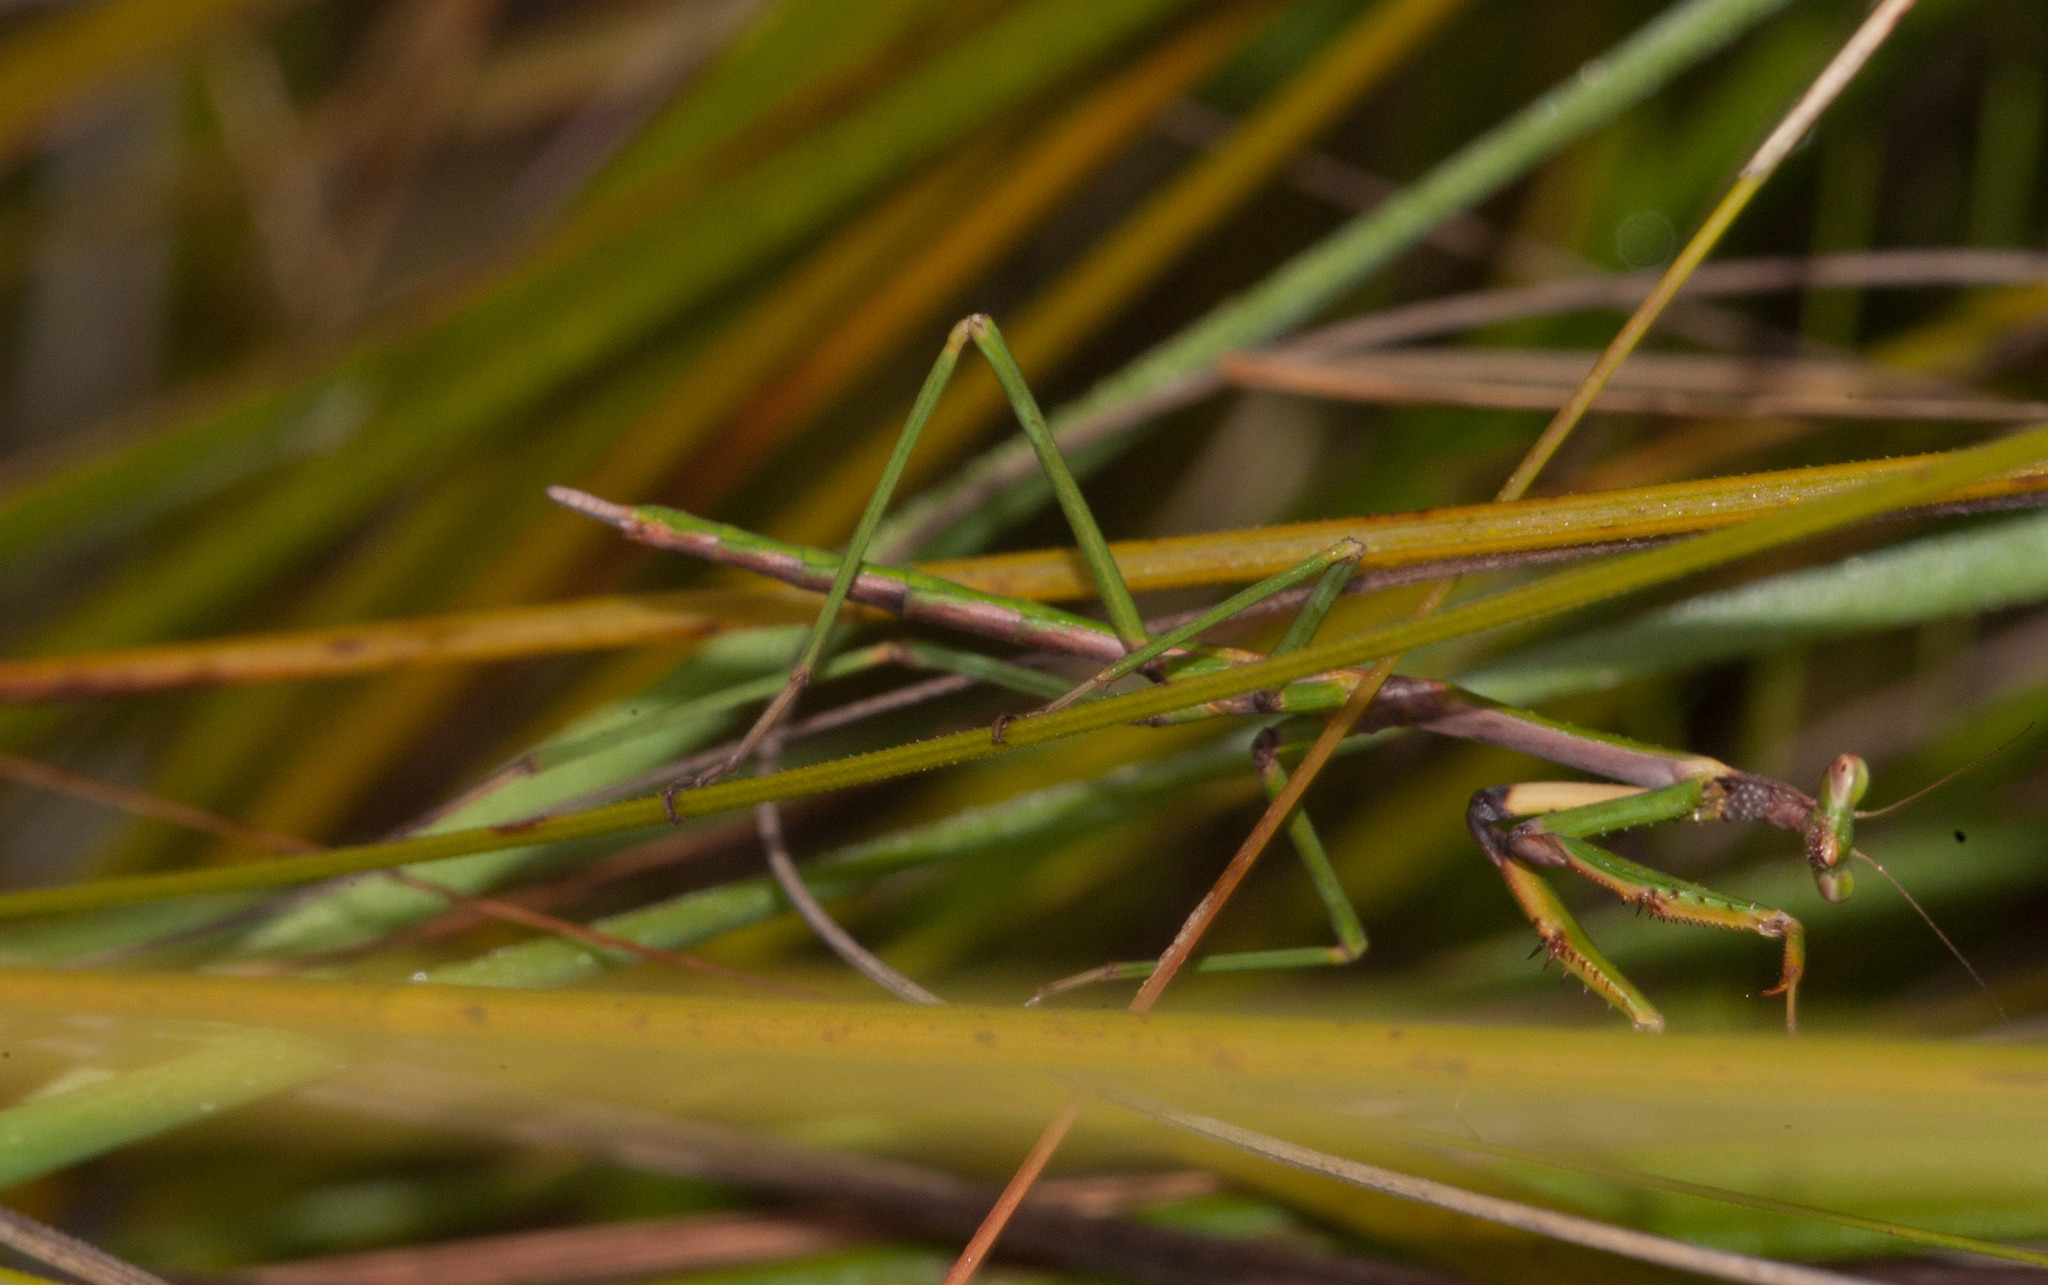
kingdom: Animalia
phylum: Arthropoda
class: Insecta
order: Mantodea
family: Mantidae
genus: Archimantis
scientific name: Archimantis latistyla
